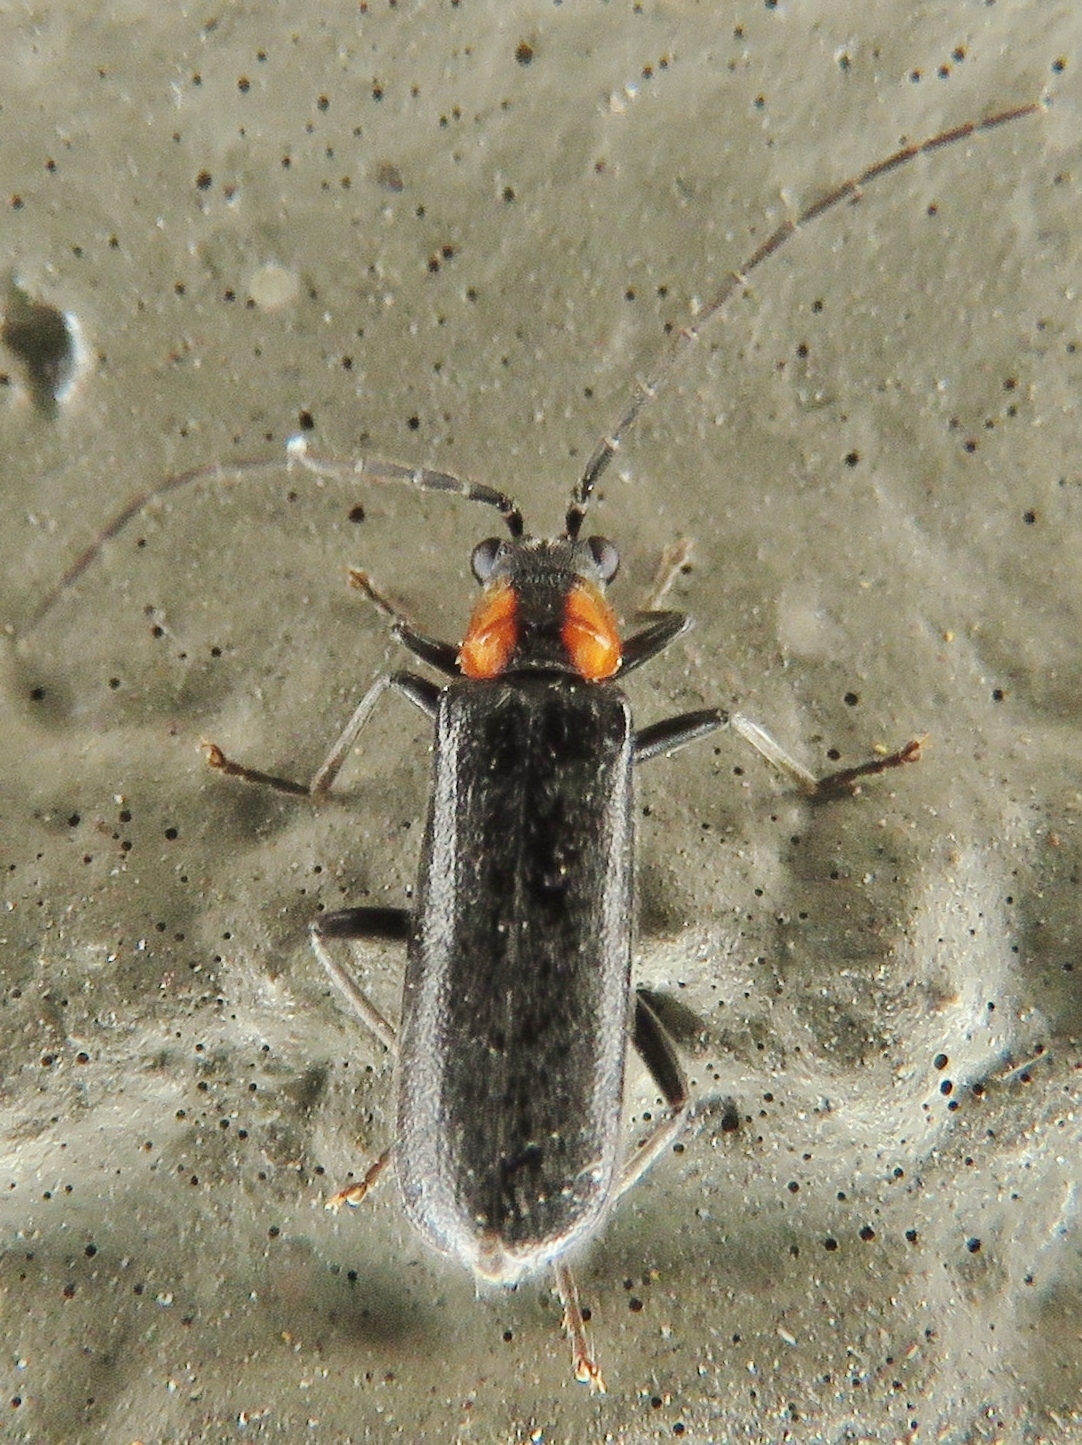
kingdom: Animalia
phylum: Arthropoda
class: Insecta
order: Coleoptera
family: Cantharidae
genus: Rhagonycha
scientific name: Rhagonycha lineola
